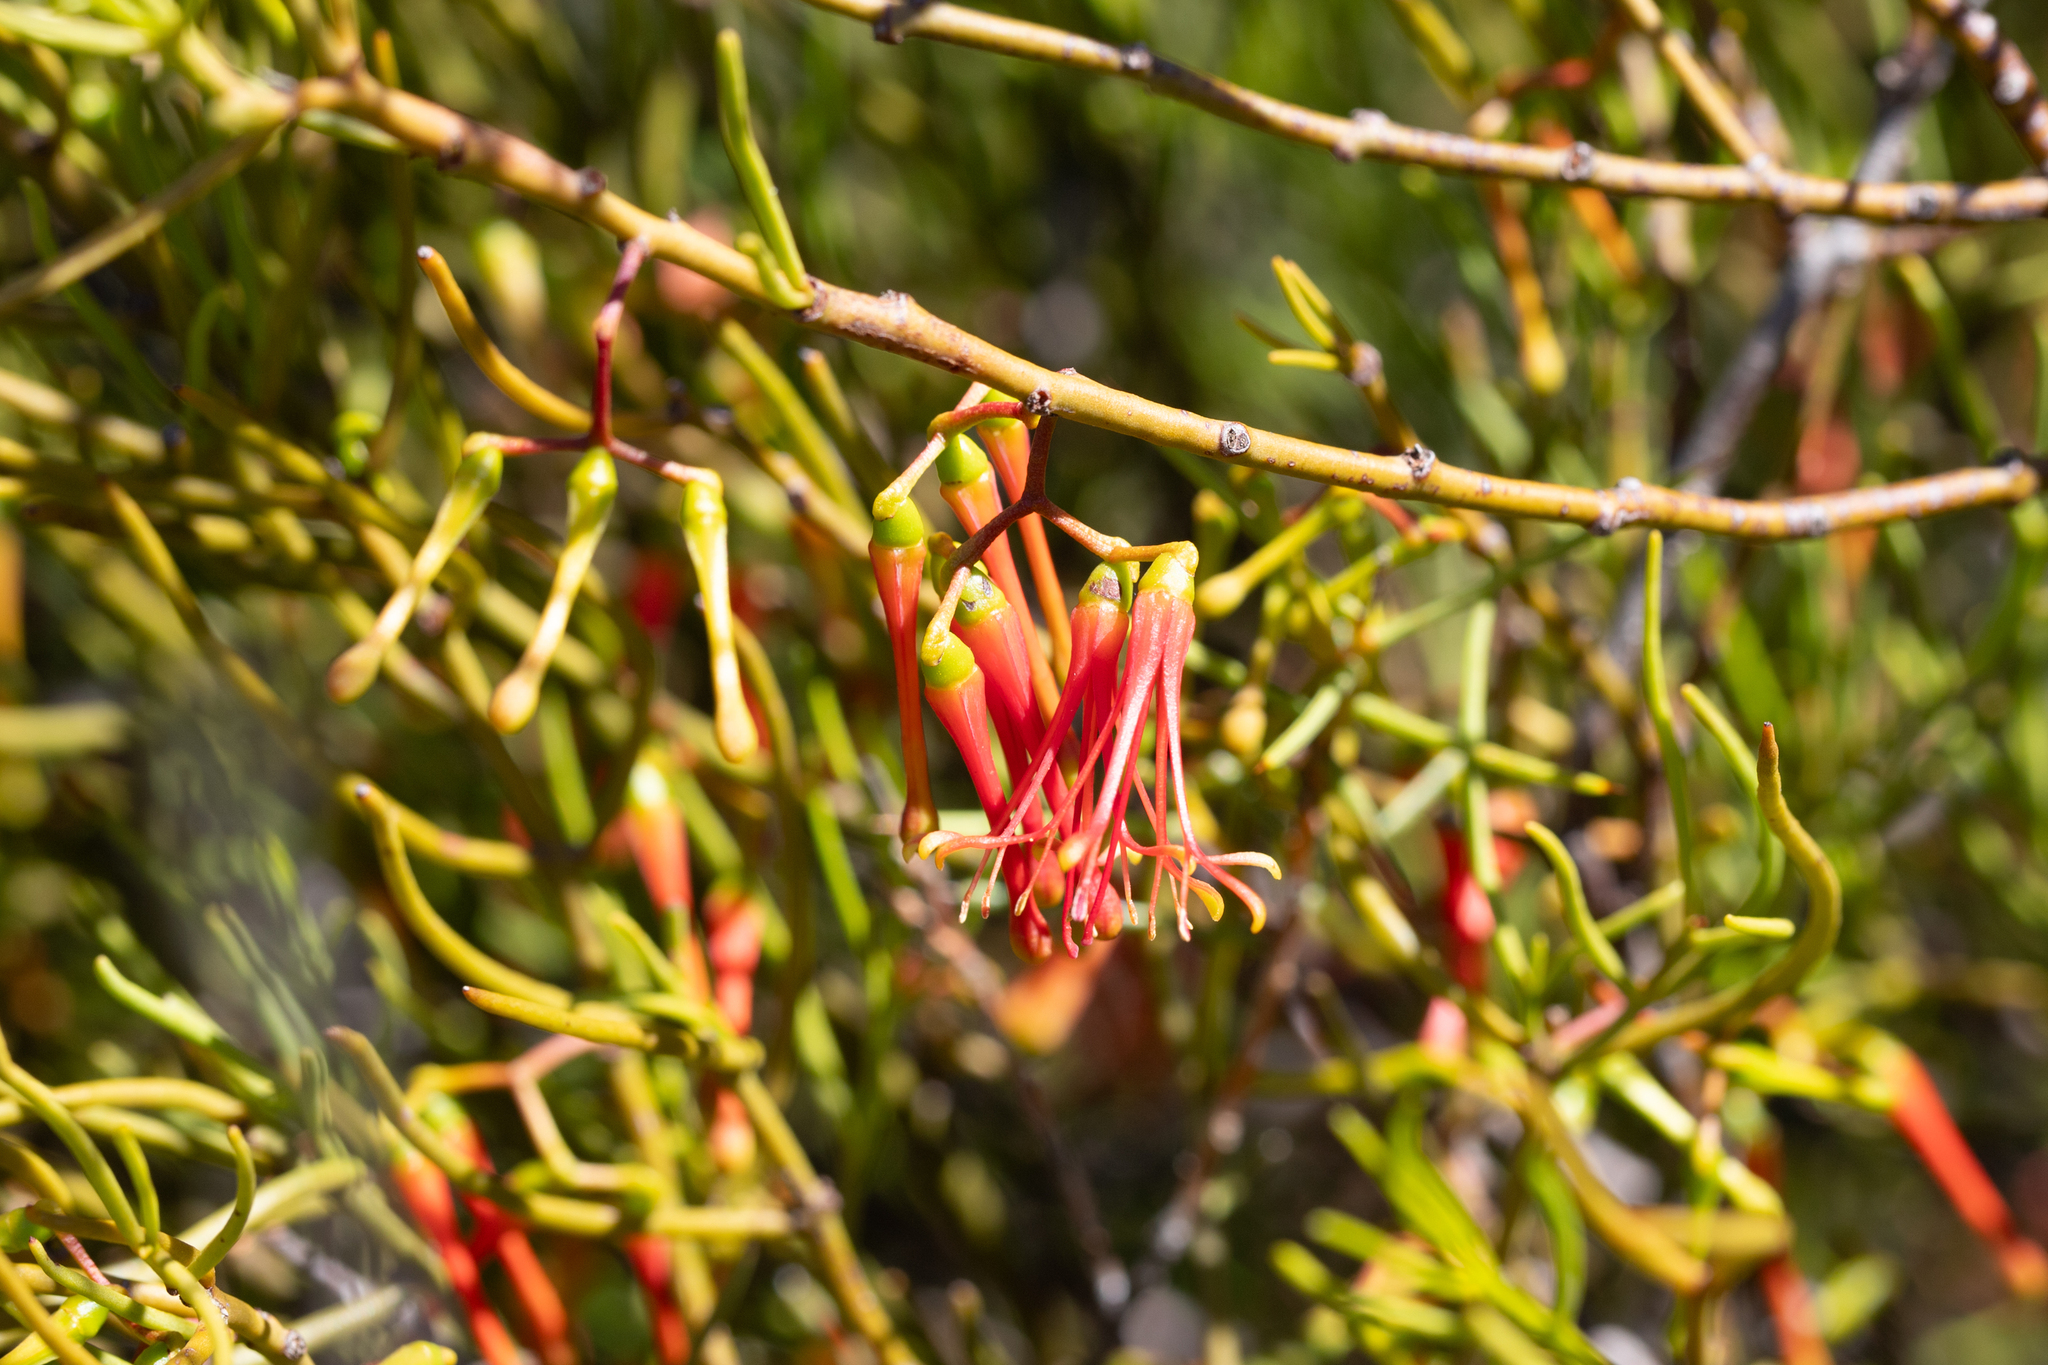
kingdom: Plantae
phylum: Tracheophyta
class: Magnoliopsida
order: Santalales
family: Loranthaceae
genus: Amyema
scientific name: Amyema preissii
